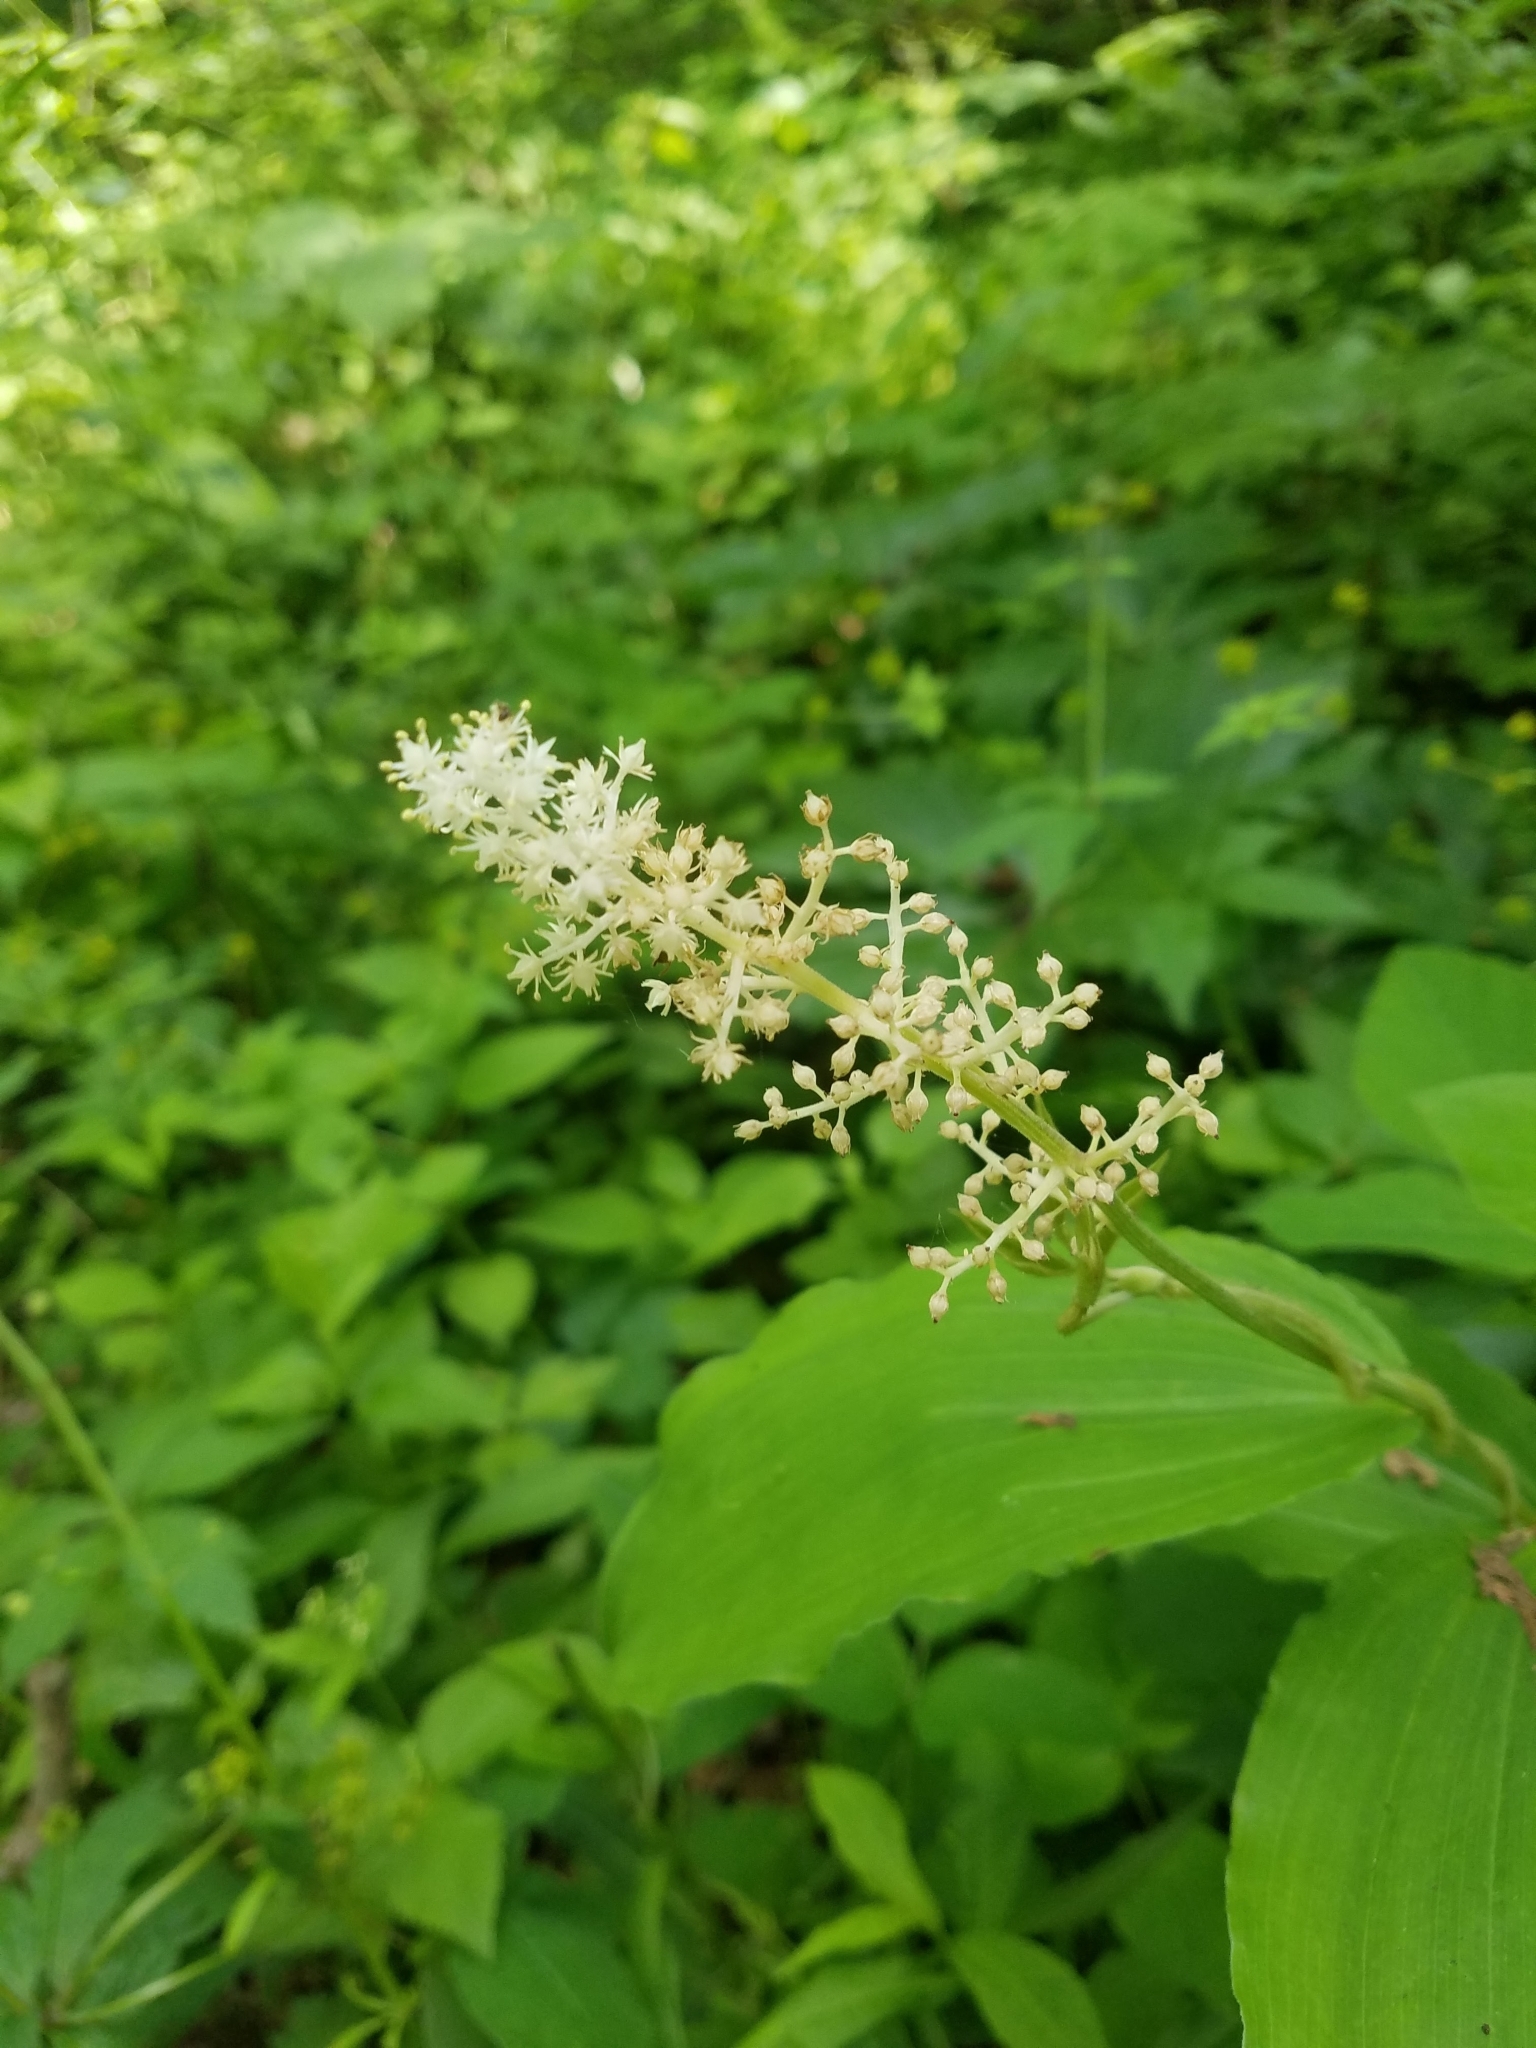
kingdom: Plantae
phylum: Tracheophyta
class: Liliopsida
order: Asparagales
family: Asparagaceae
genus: Maianthemum
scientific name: Maianthemum racemosum
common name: False spikenard
